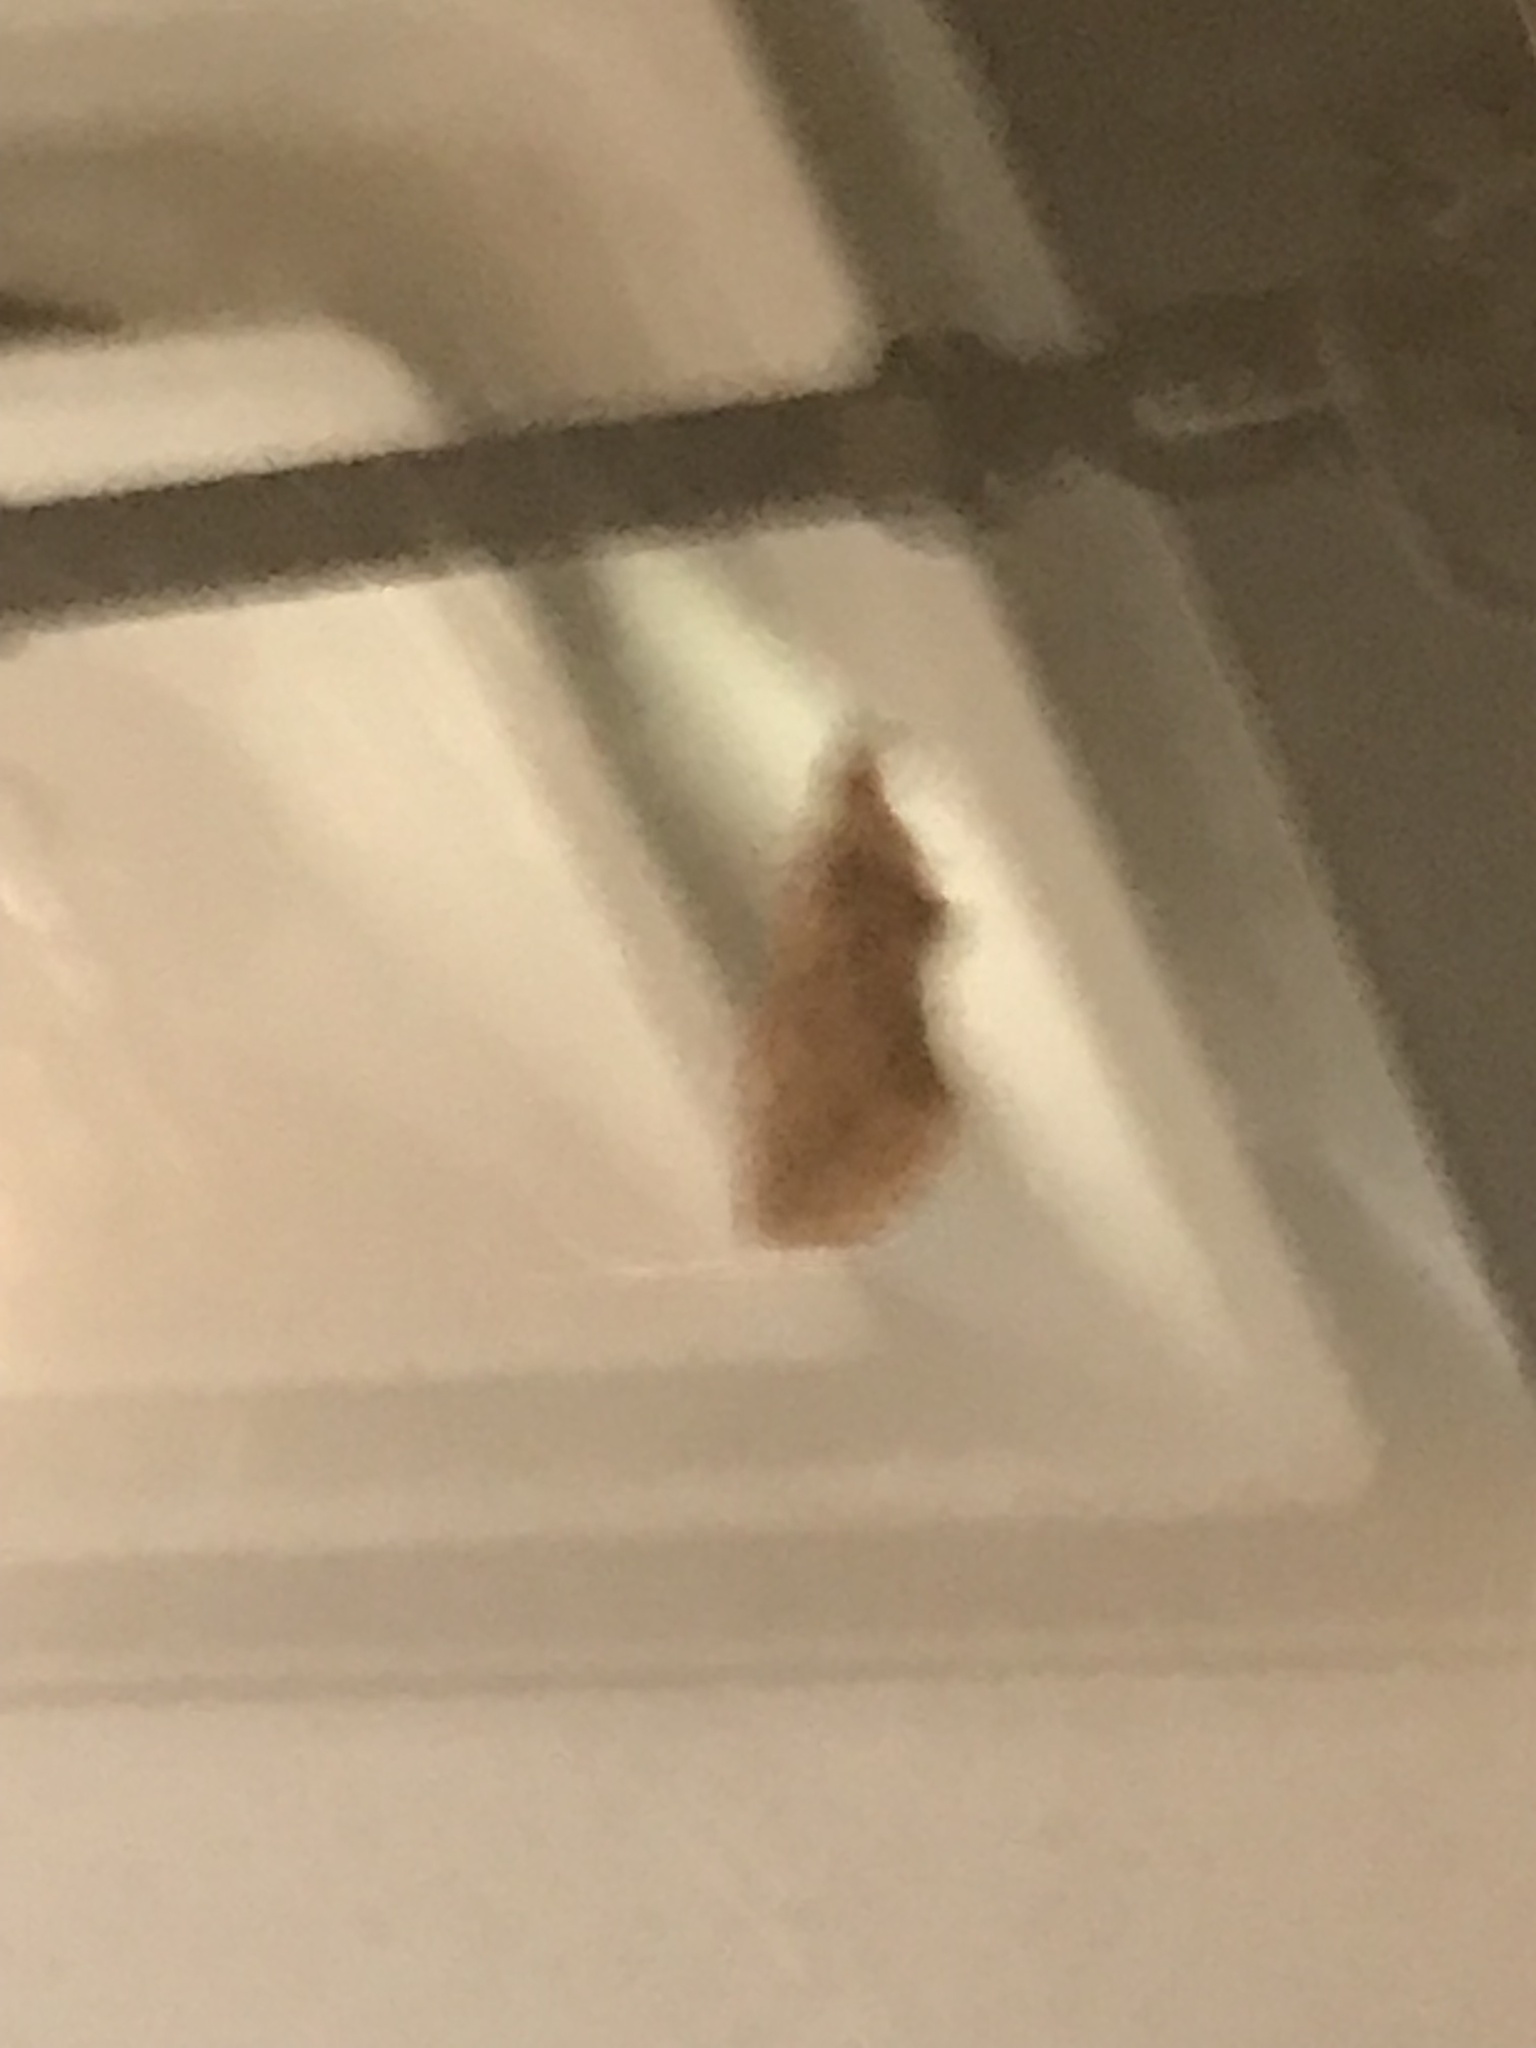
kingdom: Animalia
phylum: Arthropoda
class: Insecta
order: Lepidoptera
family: Erebidae
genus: Calyptra
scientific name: Calyptra canadensis
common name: Canadian owlet
